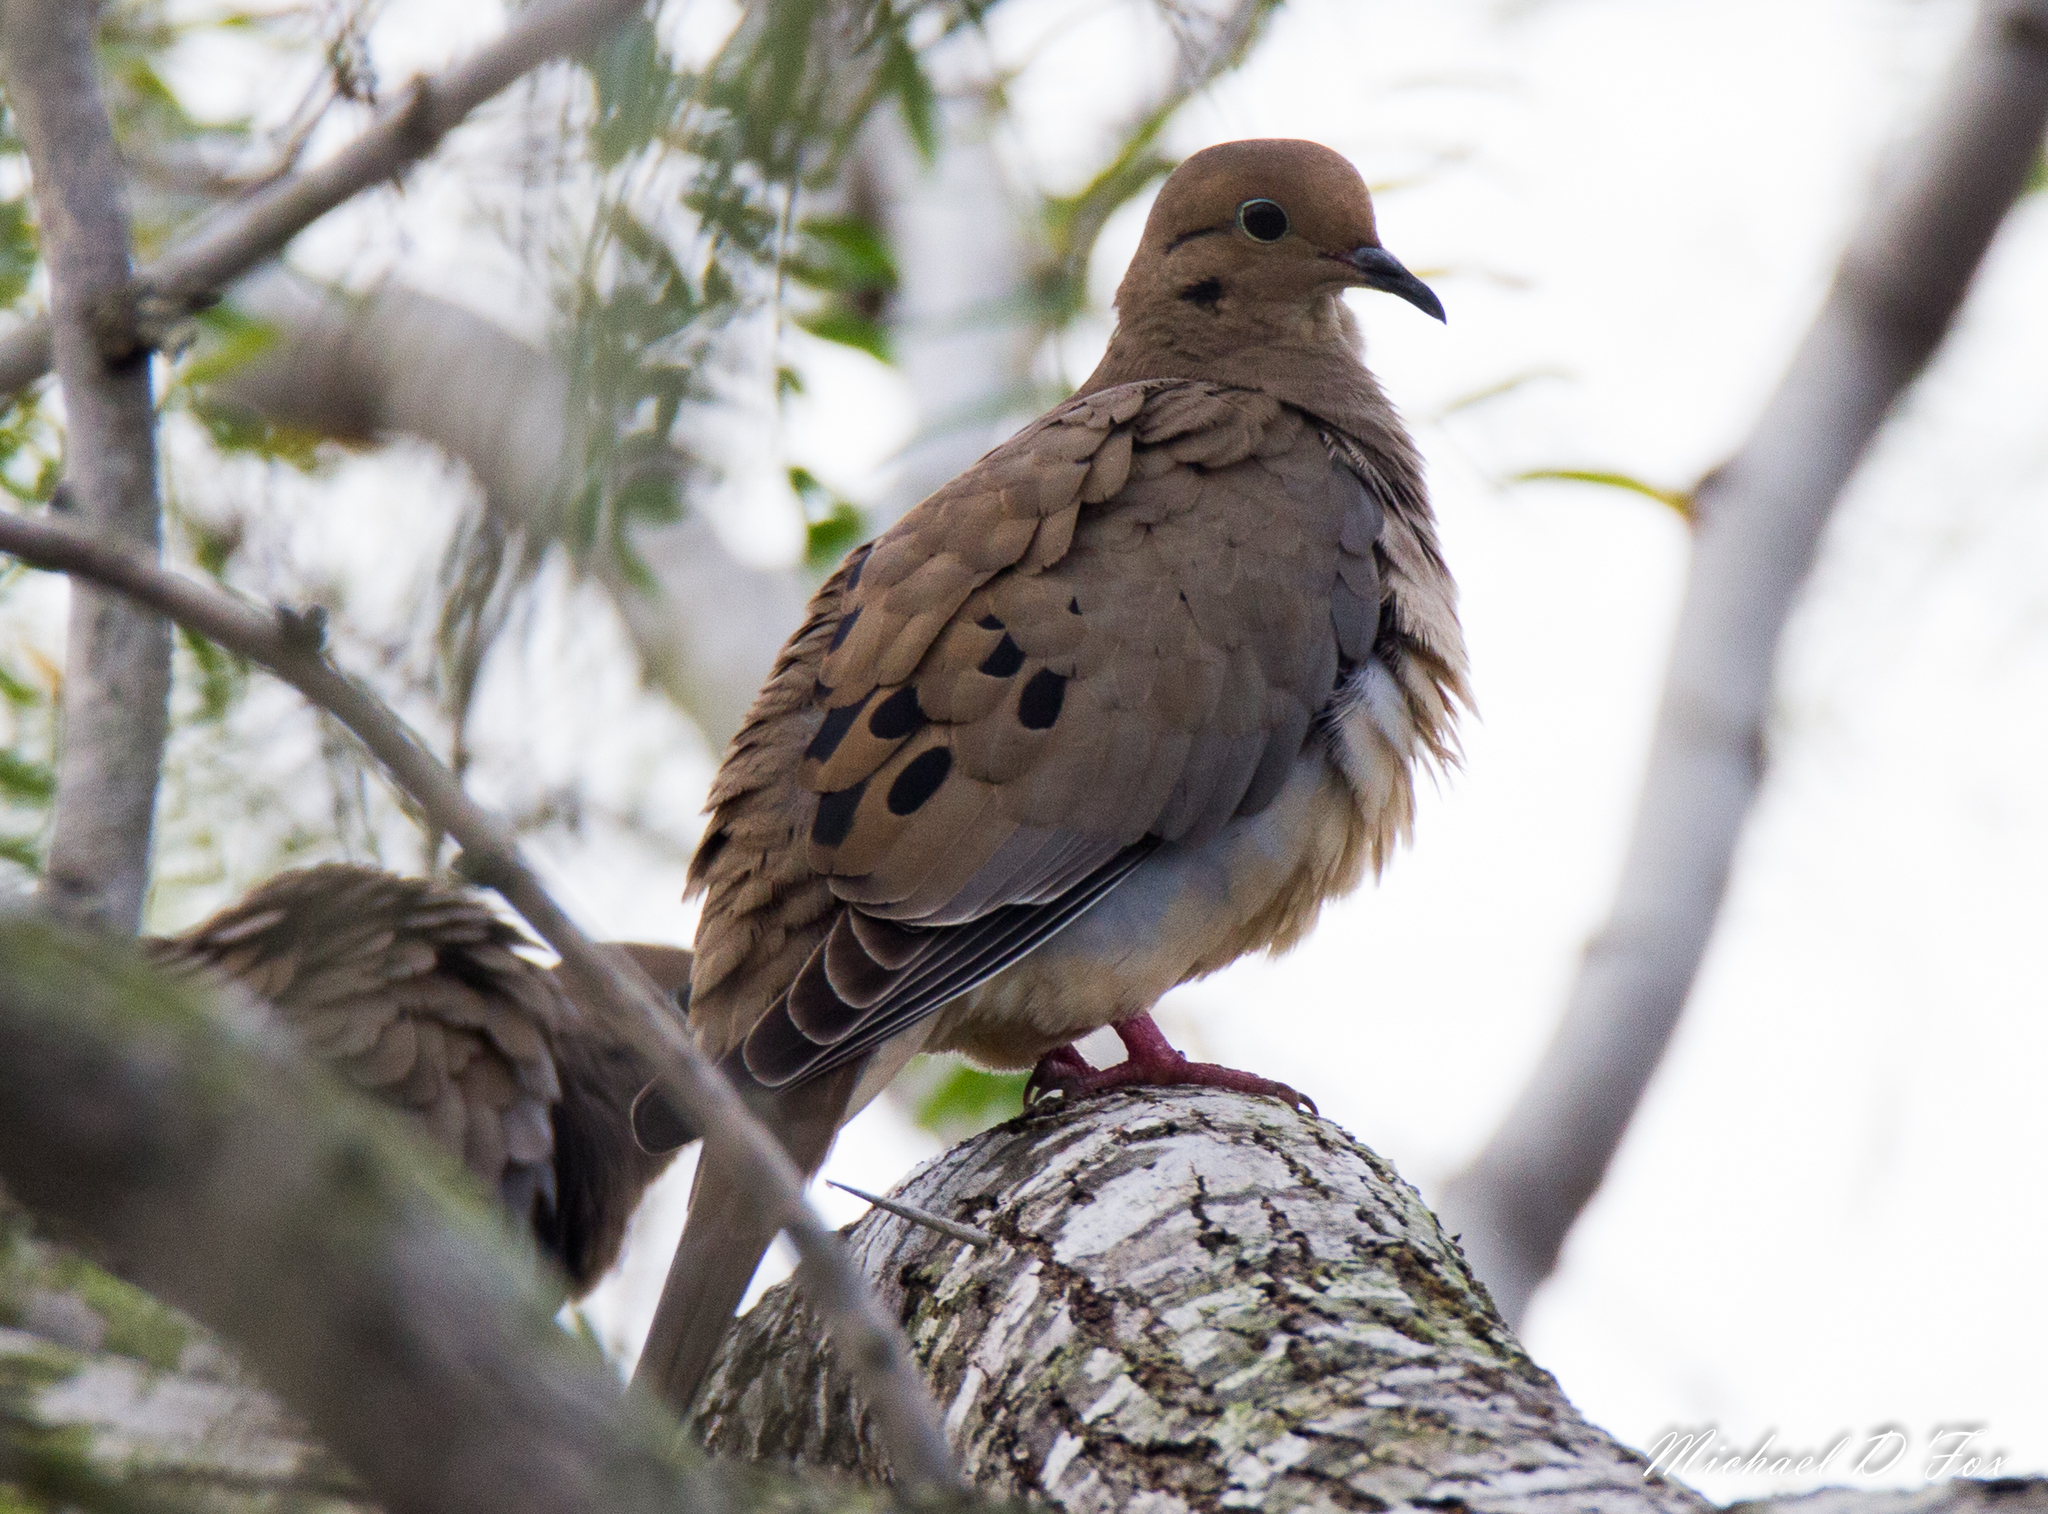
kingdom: Animalia
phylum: Chordata
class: Aves
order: Columbiformes
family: Columbidae
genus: Zenaida
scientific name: Zenaida macroura
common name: Mourning dove
